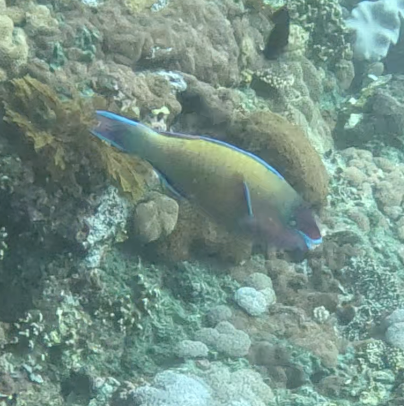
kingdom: Animalia
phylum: Chordata
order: Perciformes
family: Scaridae
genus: Scarus
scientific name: Scarus psittacus
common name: Palenose parrotfish
